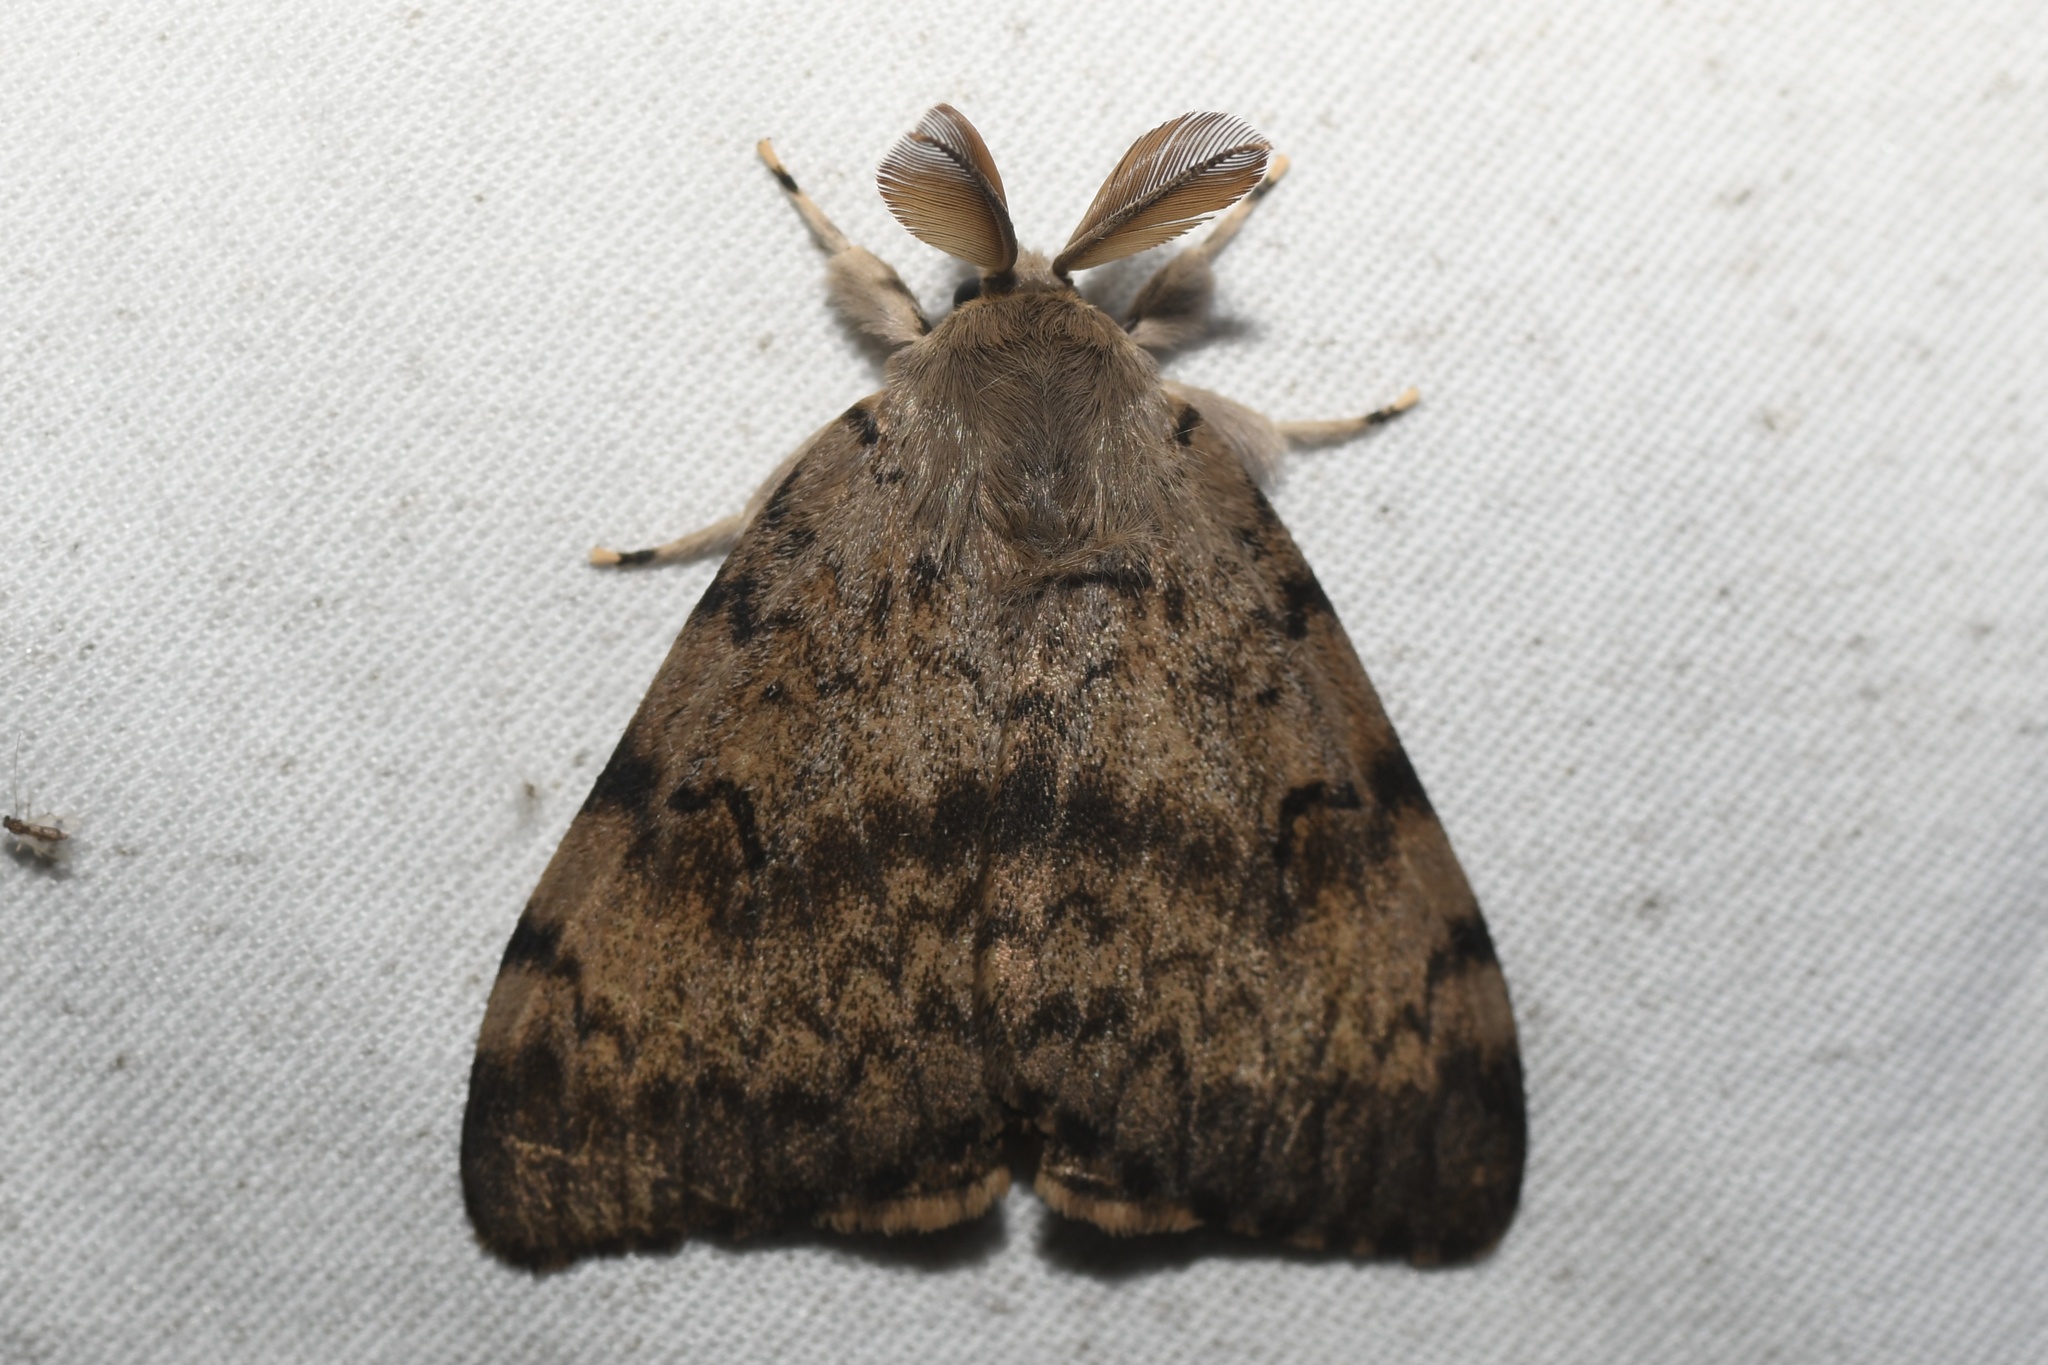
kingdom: Animalia
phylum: Arthropoda
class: Insecta
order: Lepidoptera
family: Erebidae
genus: Lymantria
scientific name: Lymantria dispar
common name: Gypsy moth
